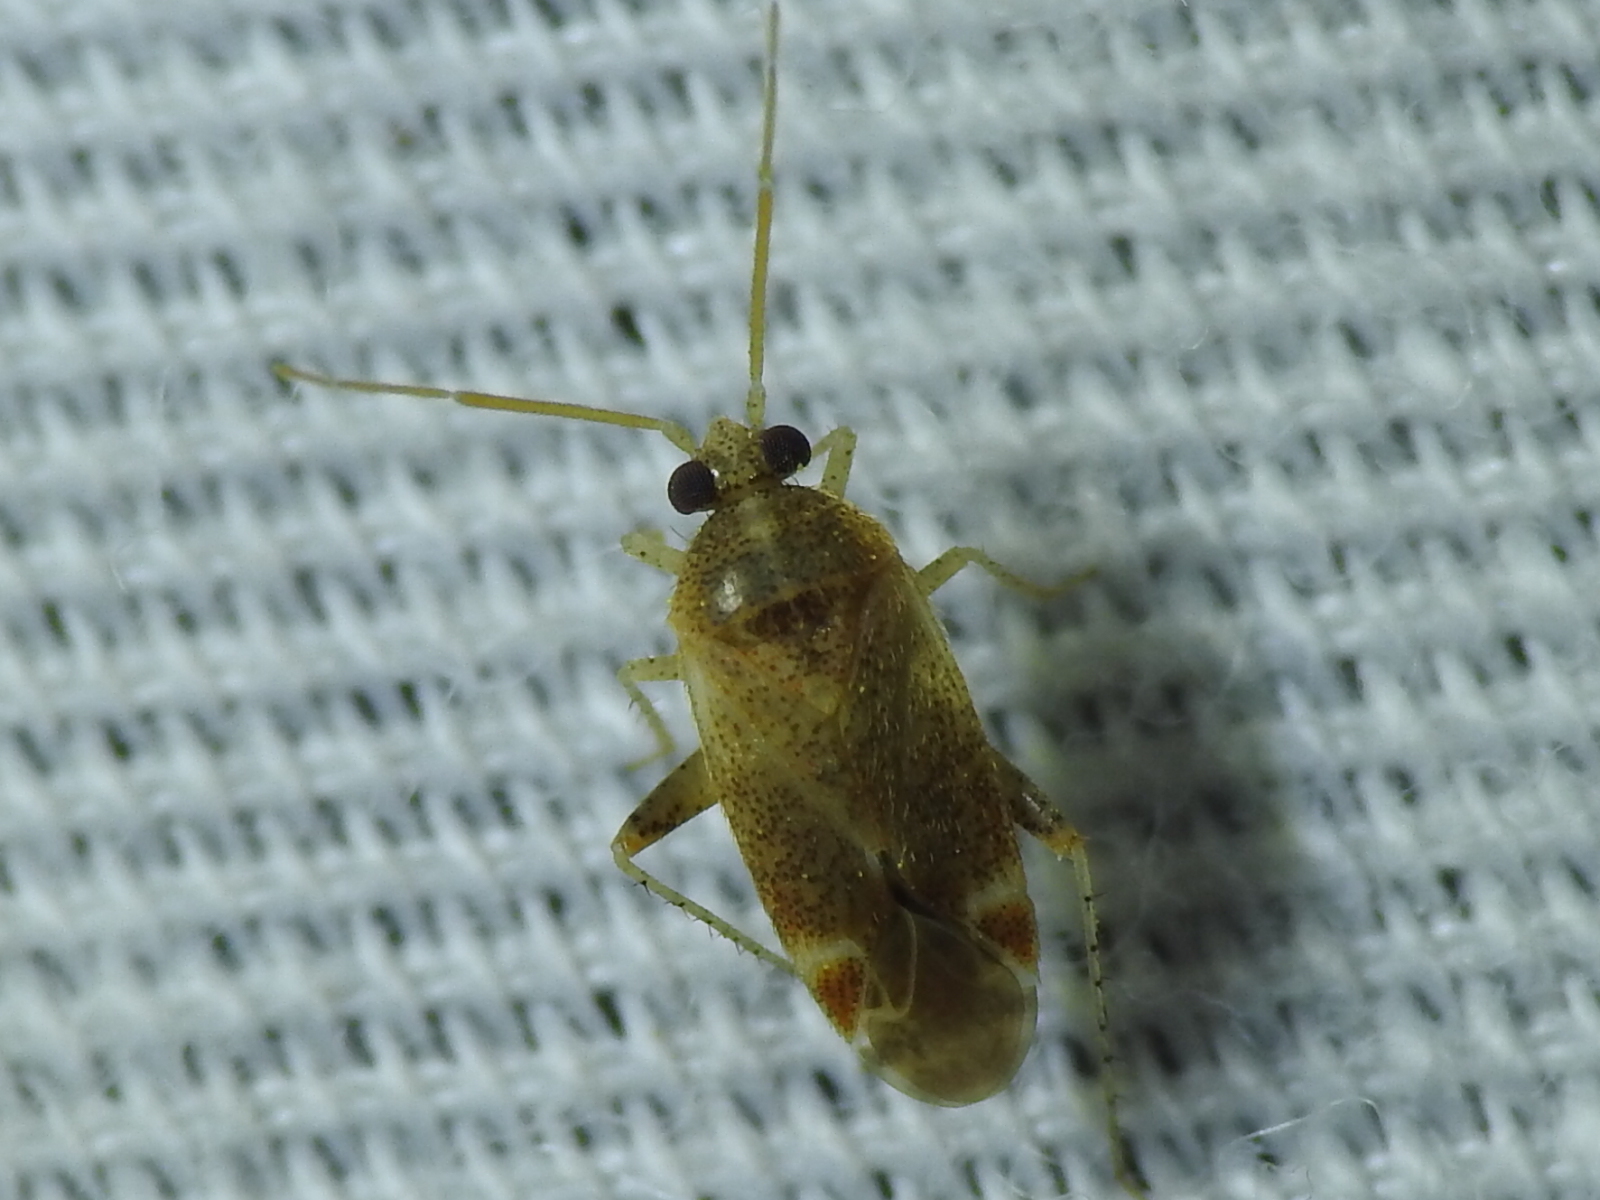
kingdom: Animalia
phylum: Arthropoda
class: Insecta
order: Hemiptera
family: Miridae
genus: Hamatophylus
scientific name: Hamatophylus guttulosus
